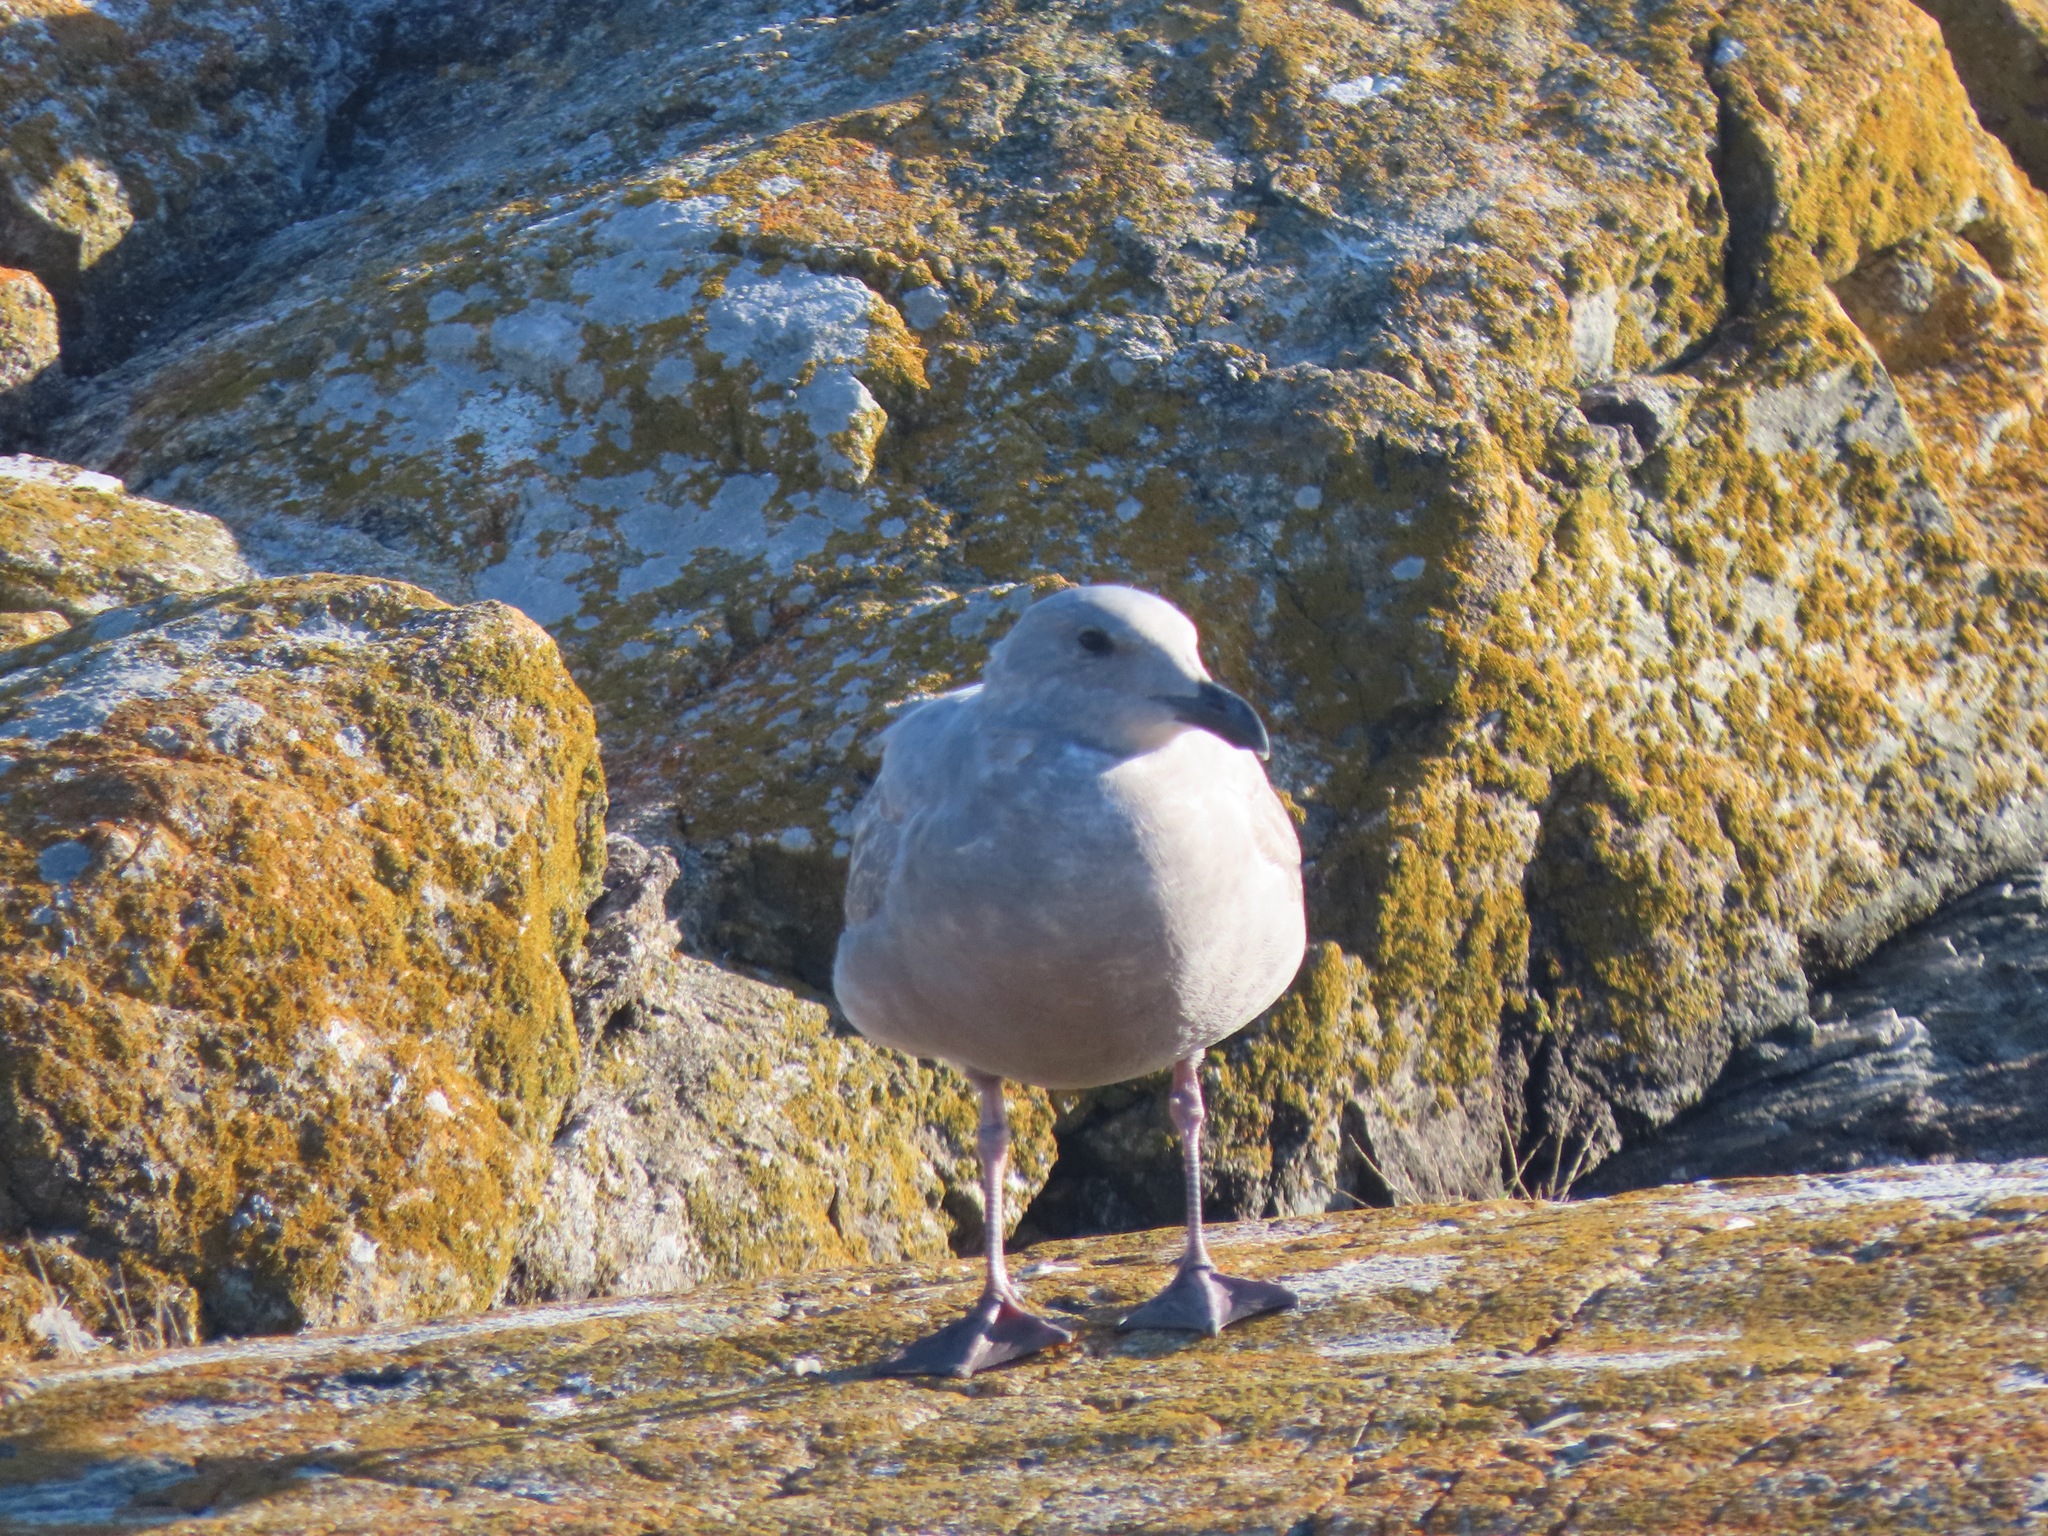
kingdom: Animalia
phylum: Chordata
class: Aves
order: Charadriiformes
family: Laridae
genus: Larus
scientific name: Larus glaucescens
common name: Glaucous-winged gull
